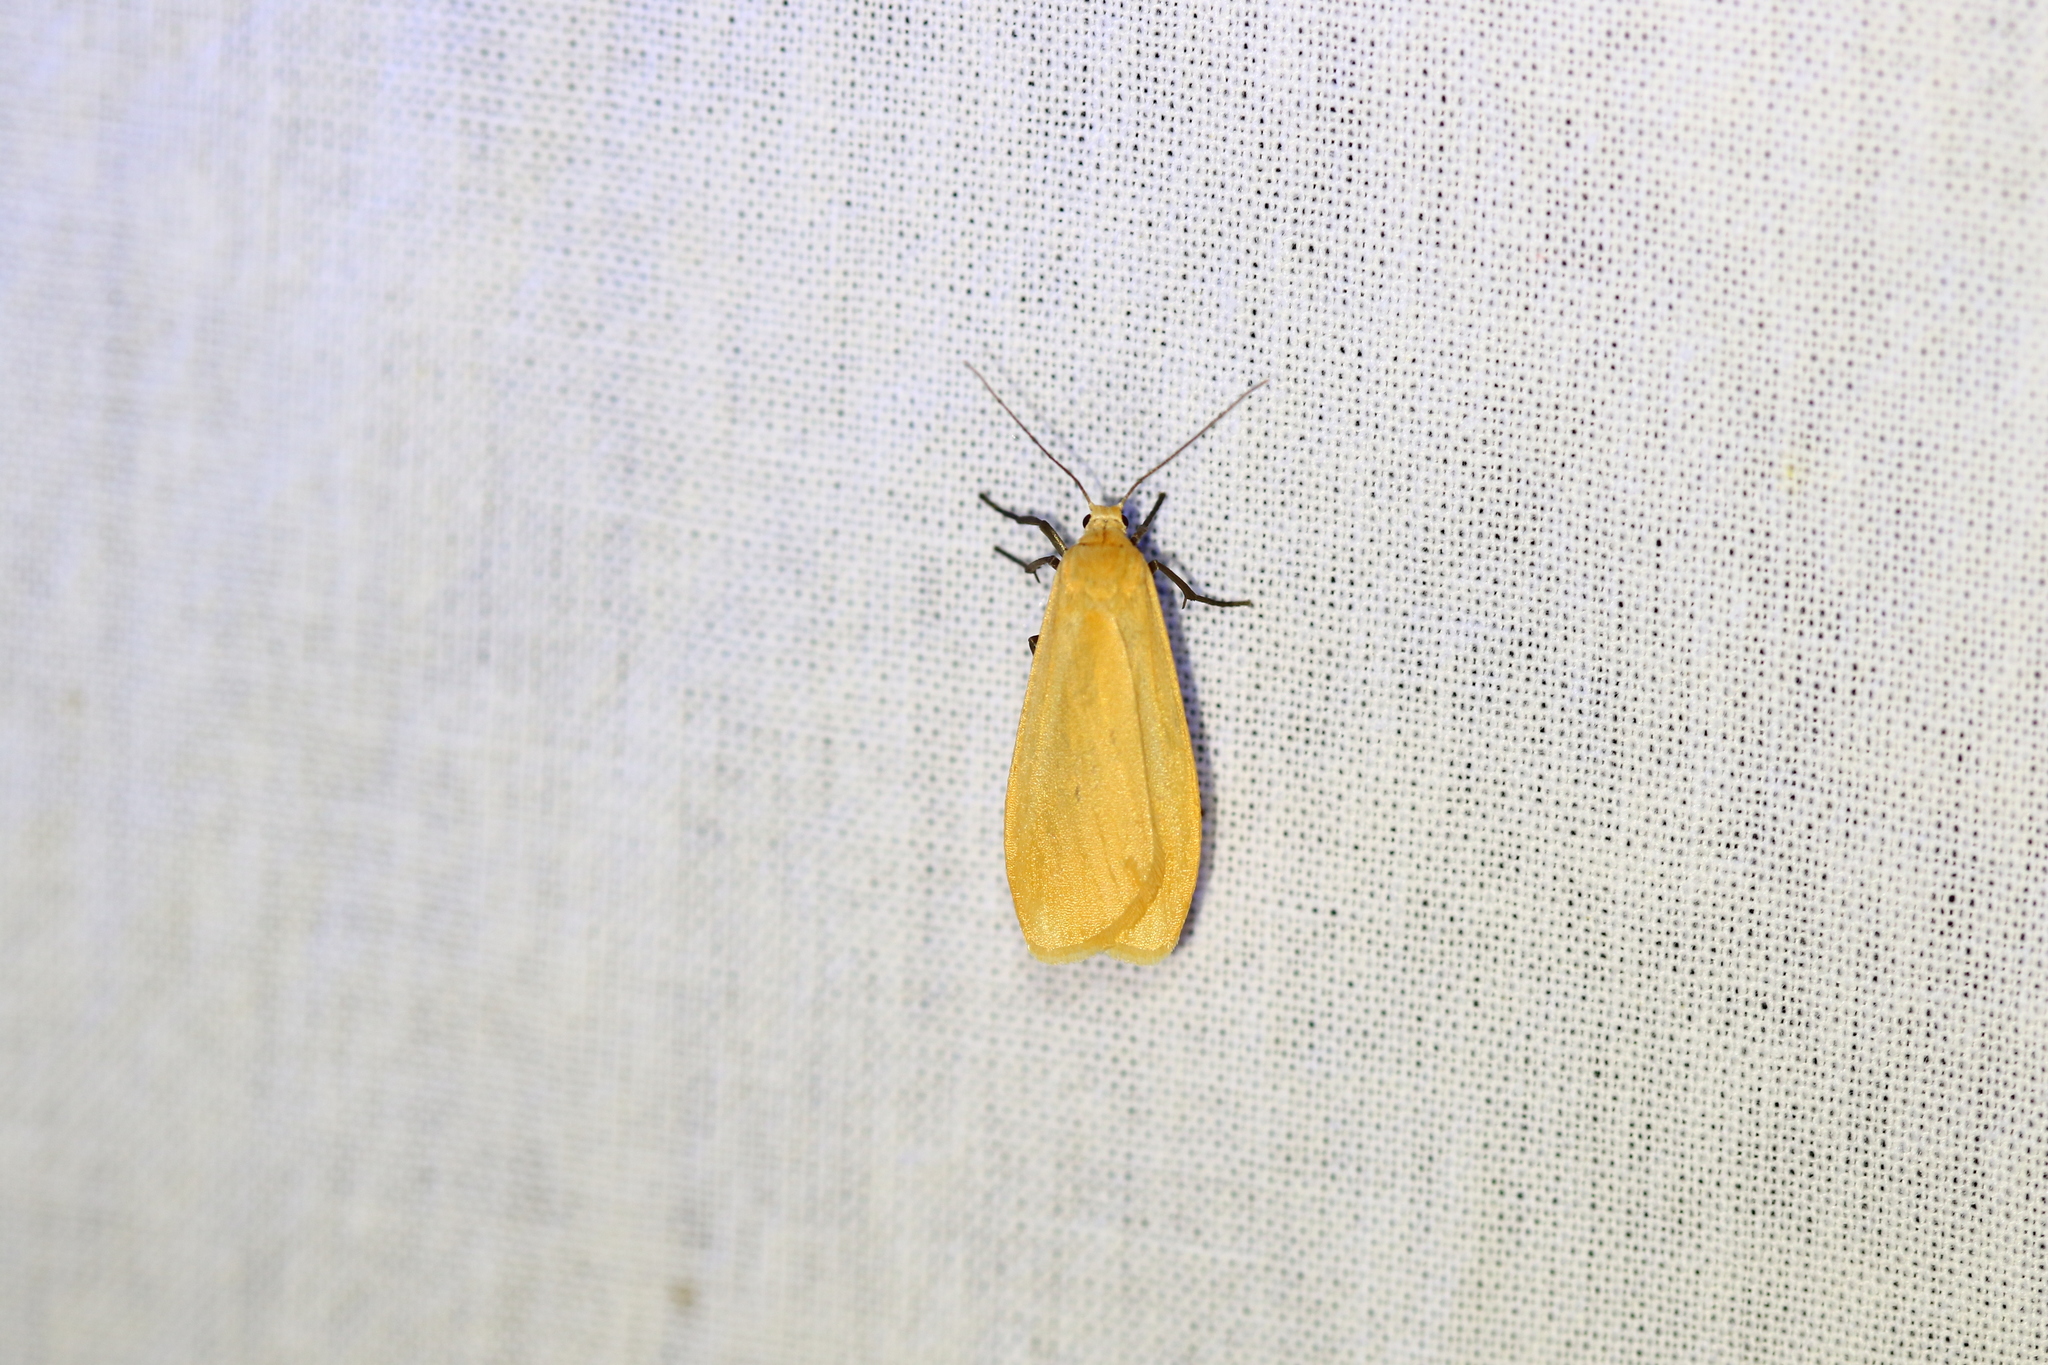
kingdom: Animalia
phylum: Arthropoda
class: Insecta
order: Lepidoptera
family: Erebidae
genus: Wittia
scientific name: Wittia sororcula
